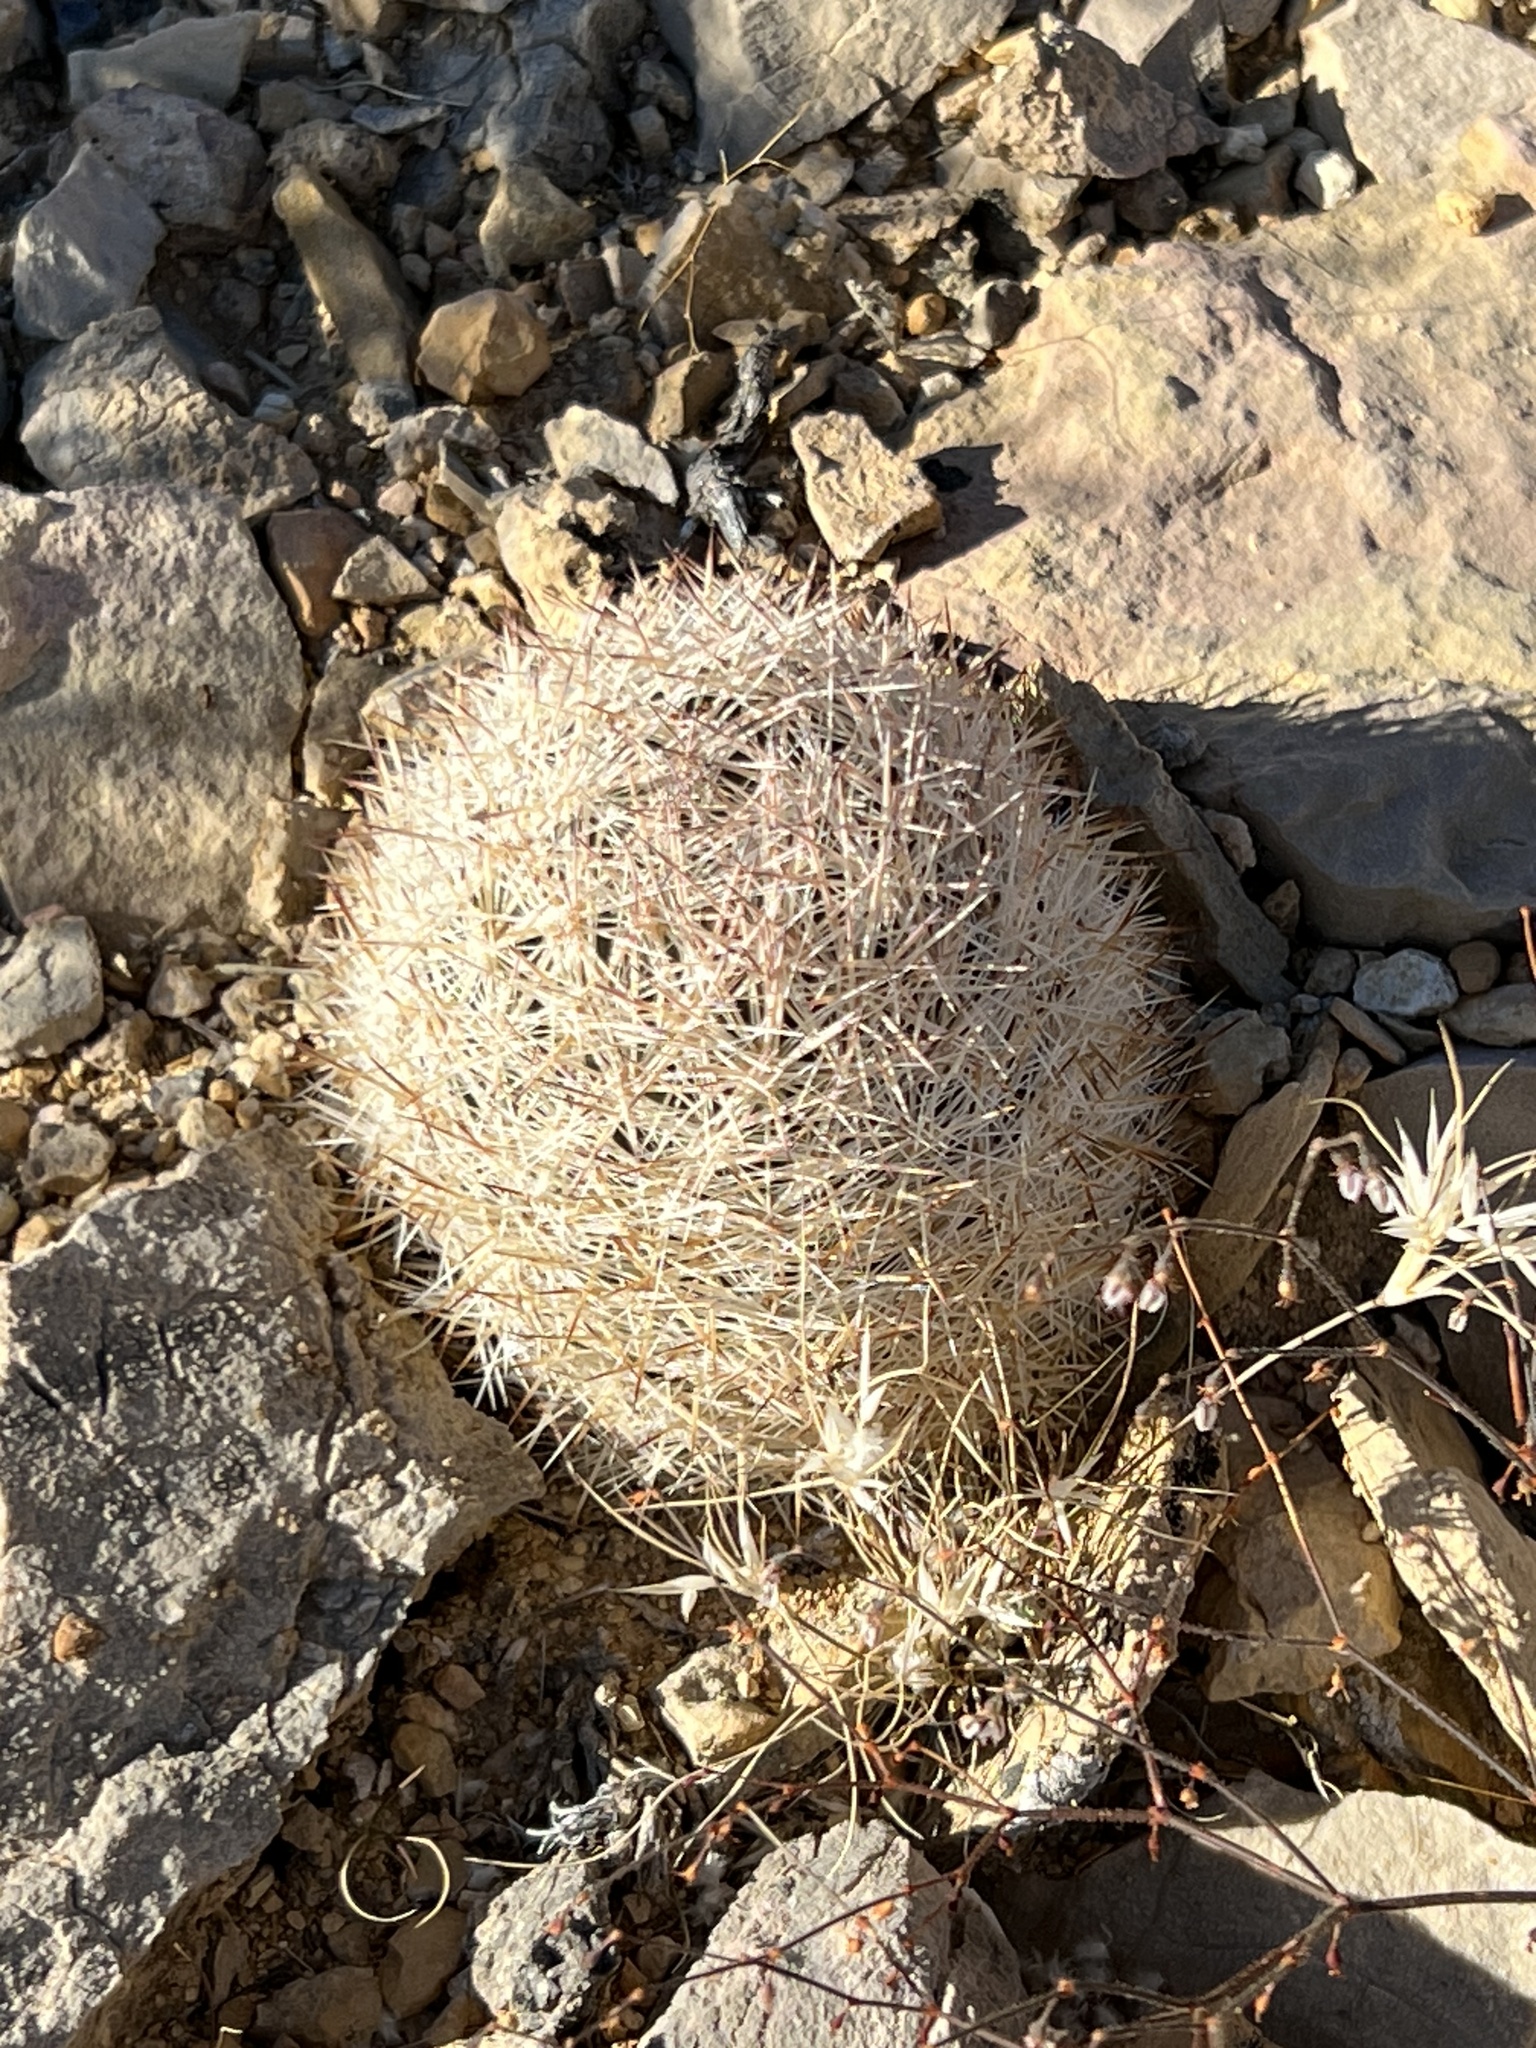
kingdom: Plantae
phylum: Tracheophyta
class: Magnoliopsida
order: Caryophyllales
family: Cactaceae
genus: Pelecyphora
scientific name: Pelecyphora dasyacantha
